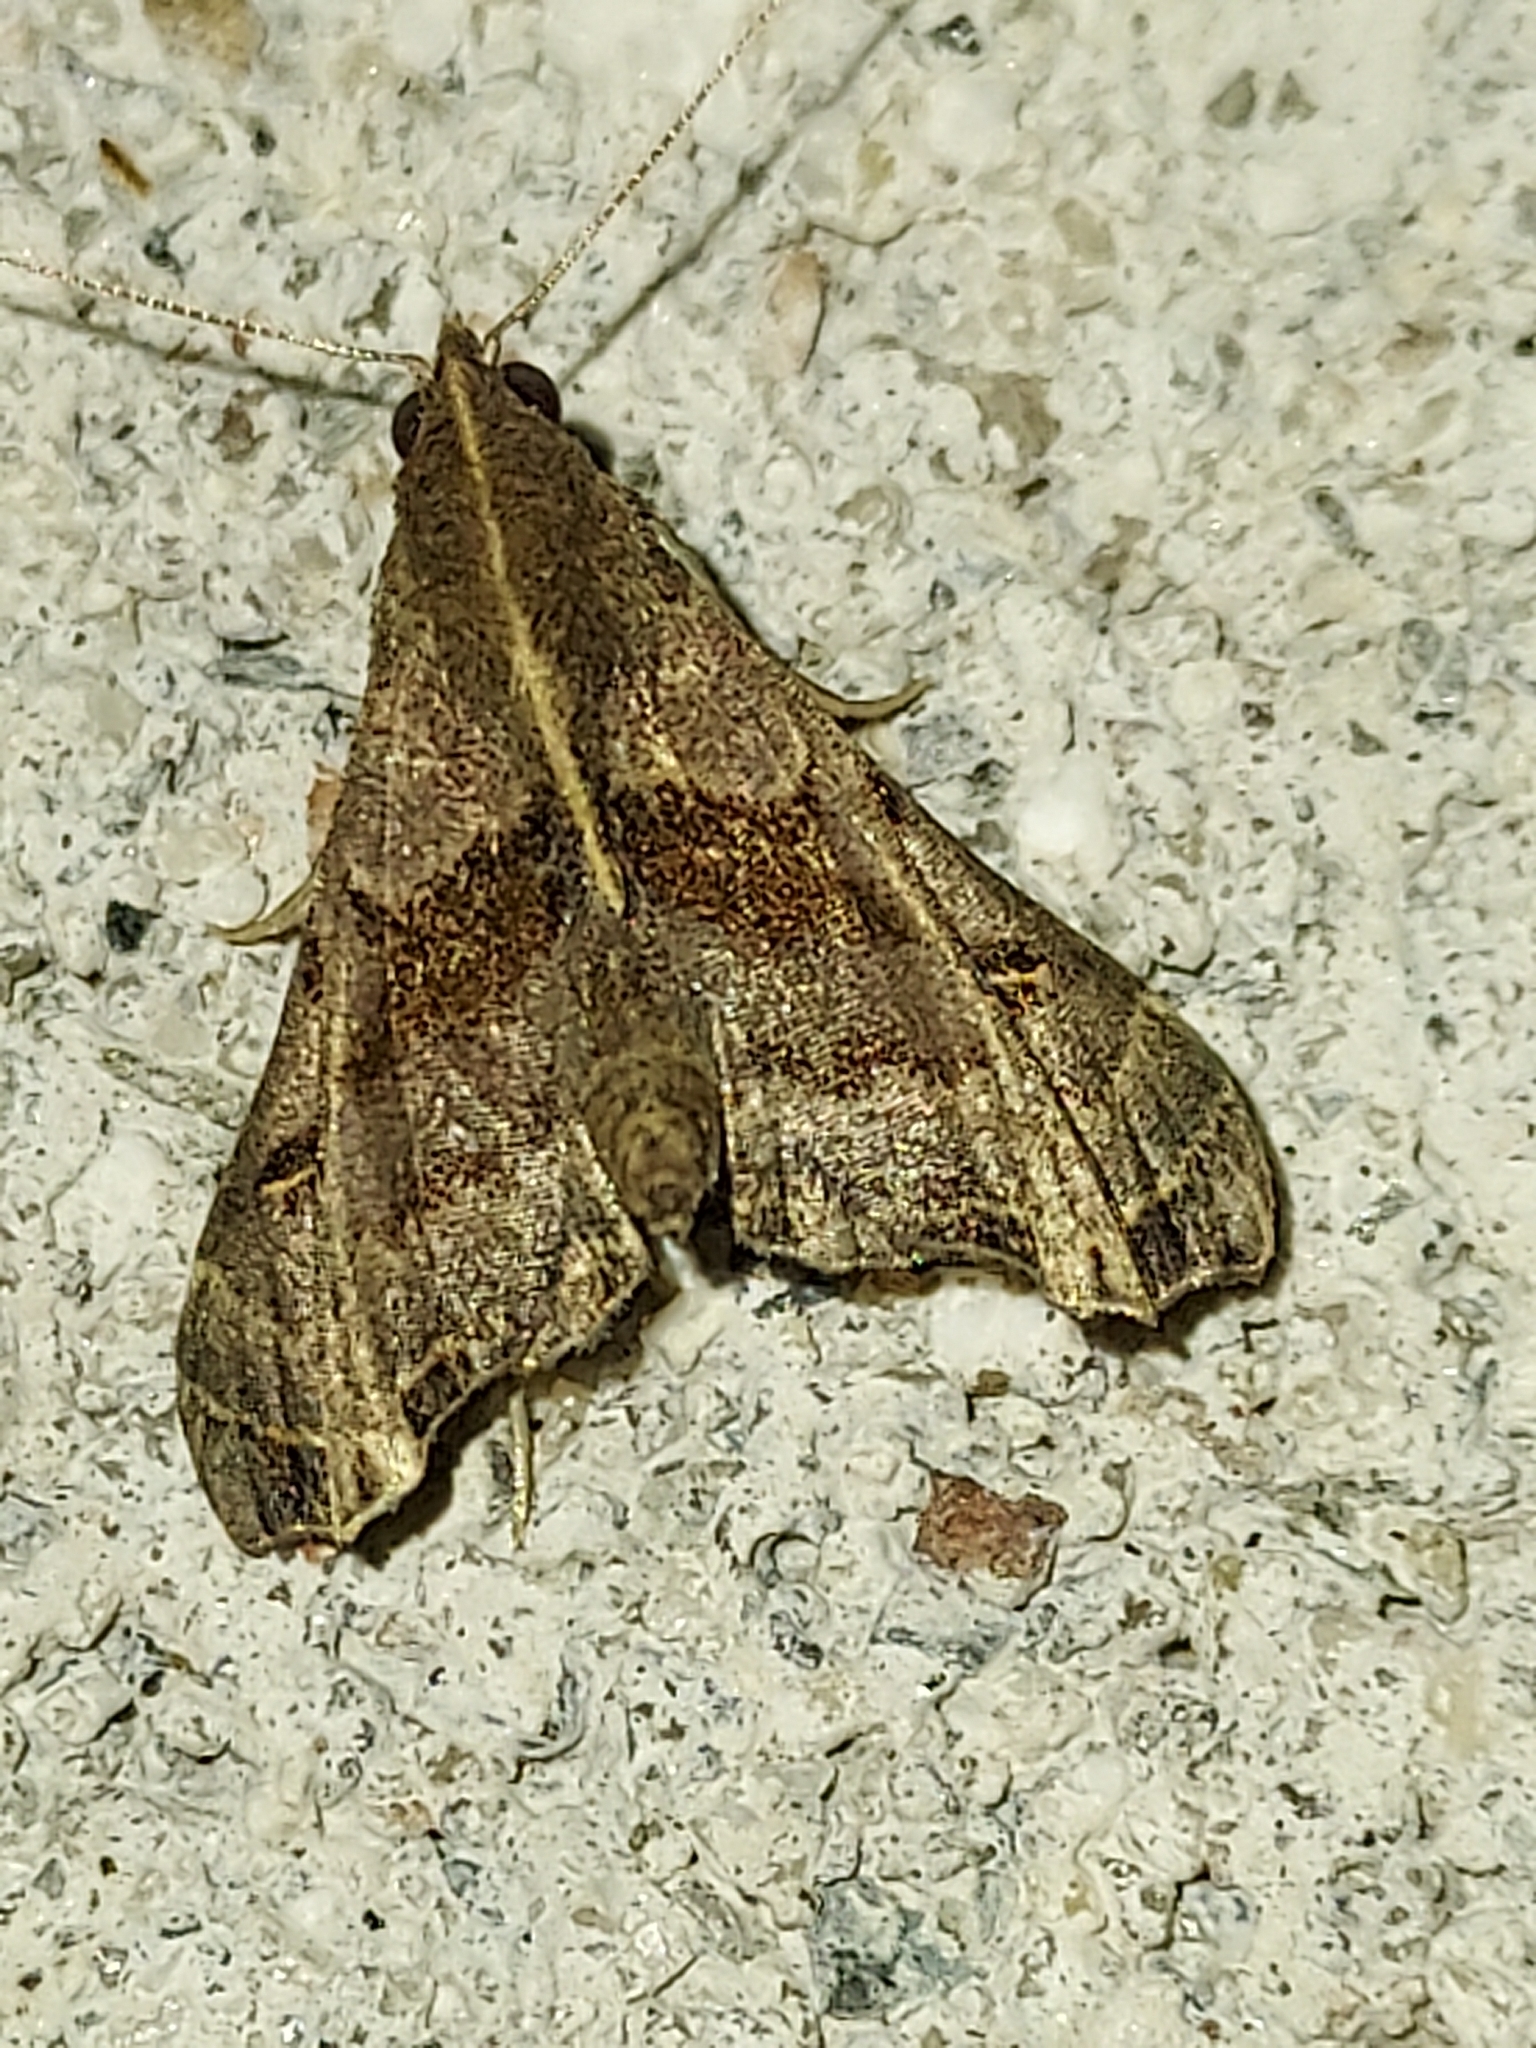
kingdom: Animalia
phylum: Arthropoda
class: Insecta
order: Lepidoptera
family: Erebidae
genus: Palthis
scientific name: Palthis asopialis
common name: Faint-spotted palthis moth
